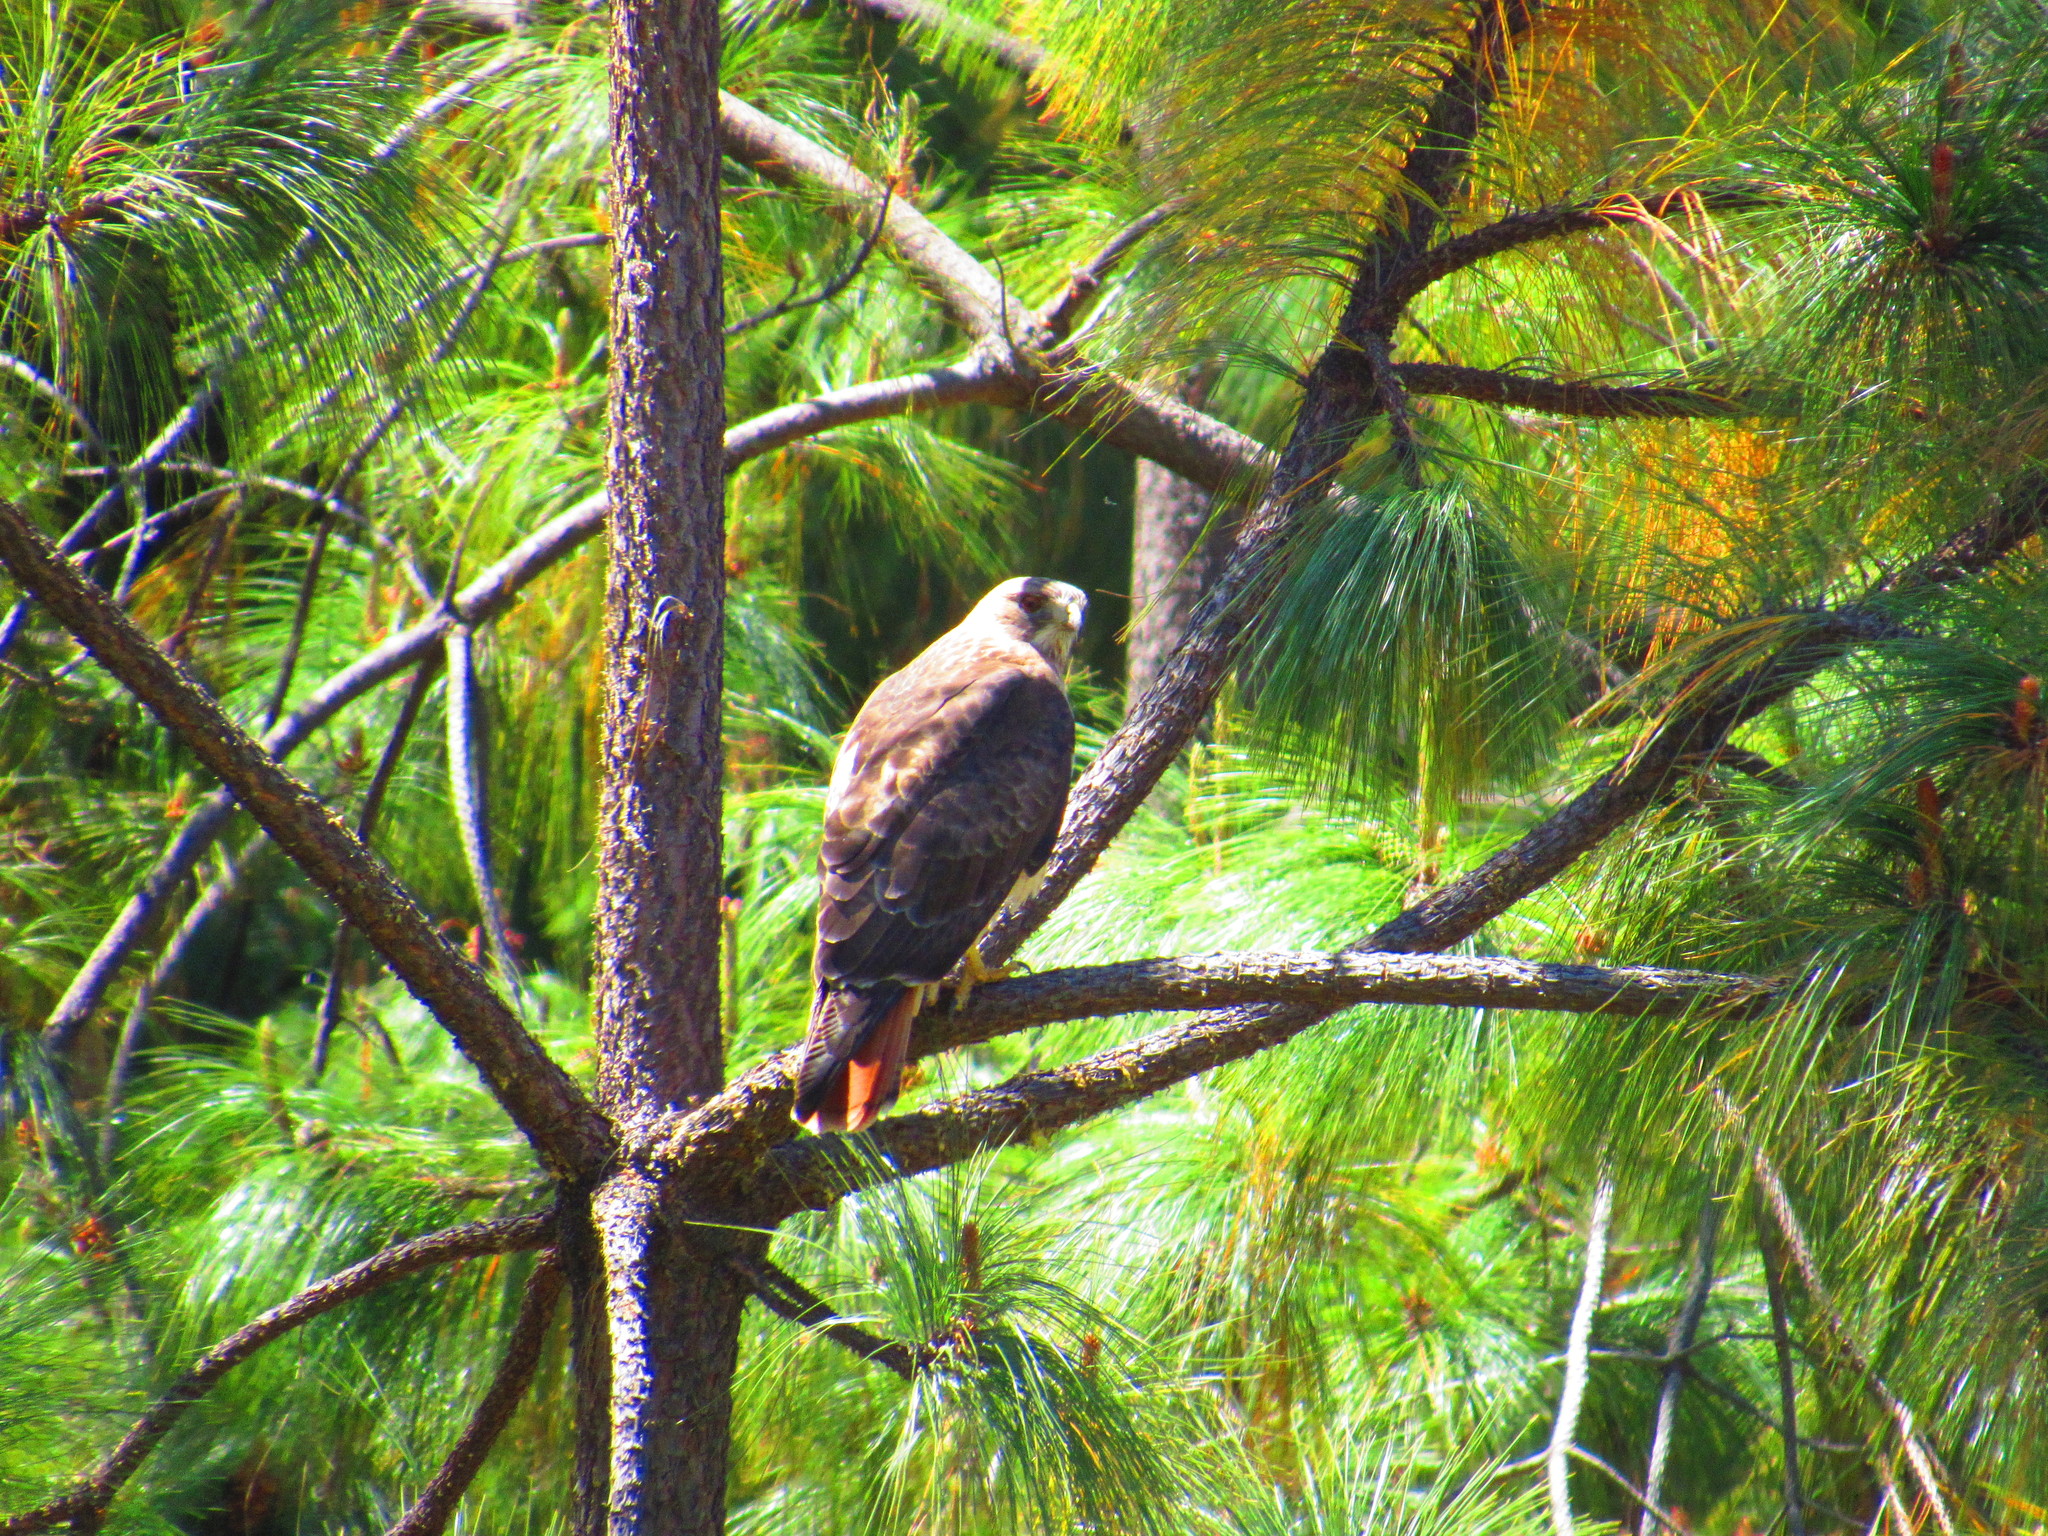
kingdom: Animalia
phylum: Chordata
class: Aves
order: Accipitriformes
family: Accipitridae
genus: Buteo
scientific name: Buteo jamaicensis
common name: Red-tailed hawk
